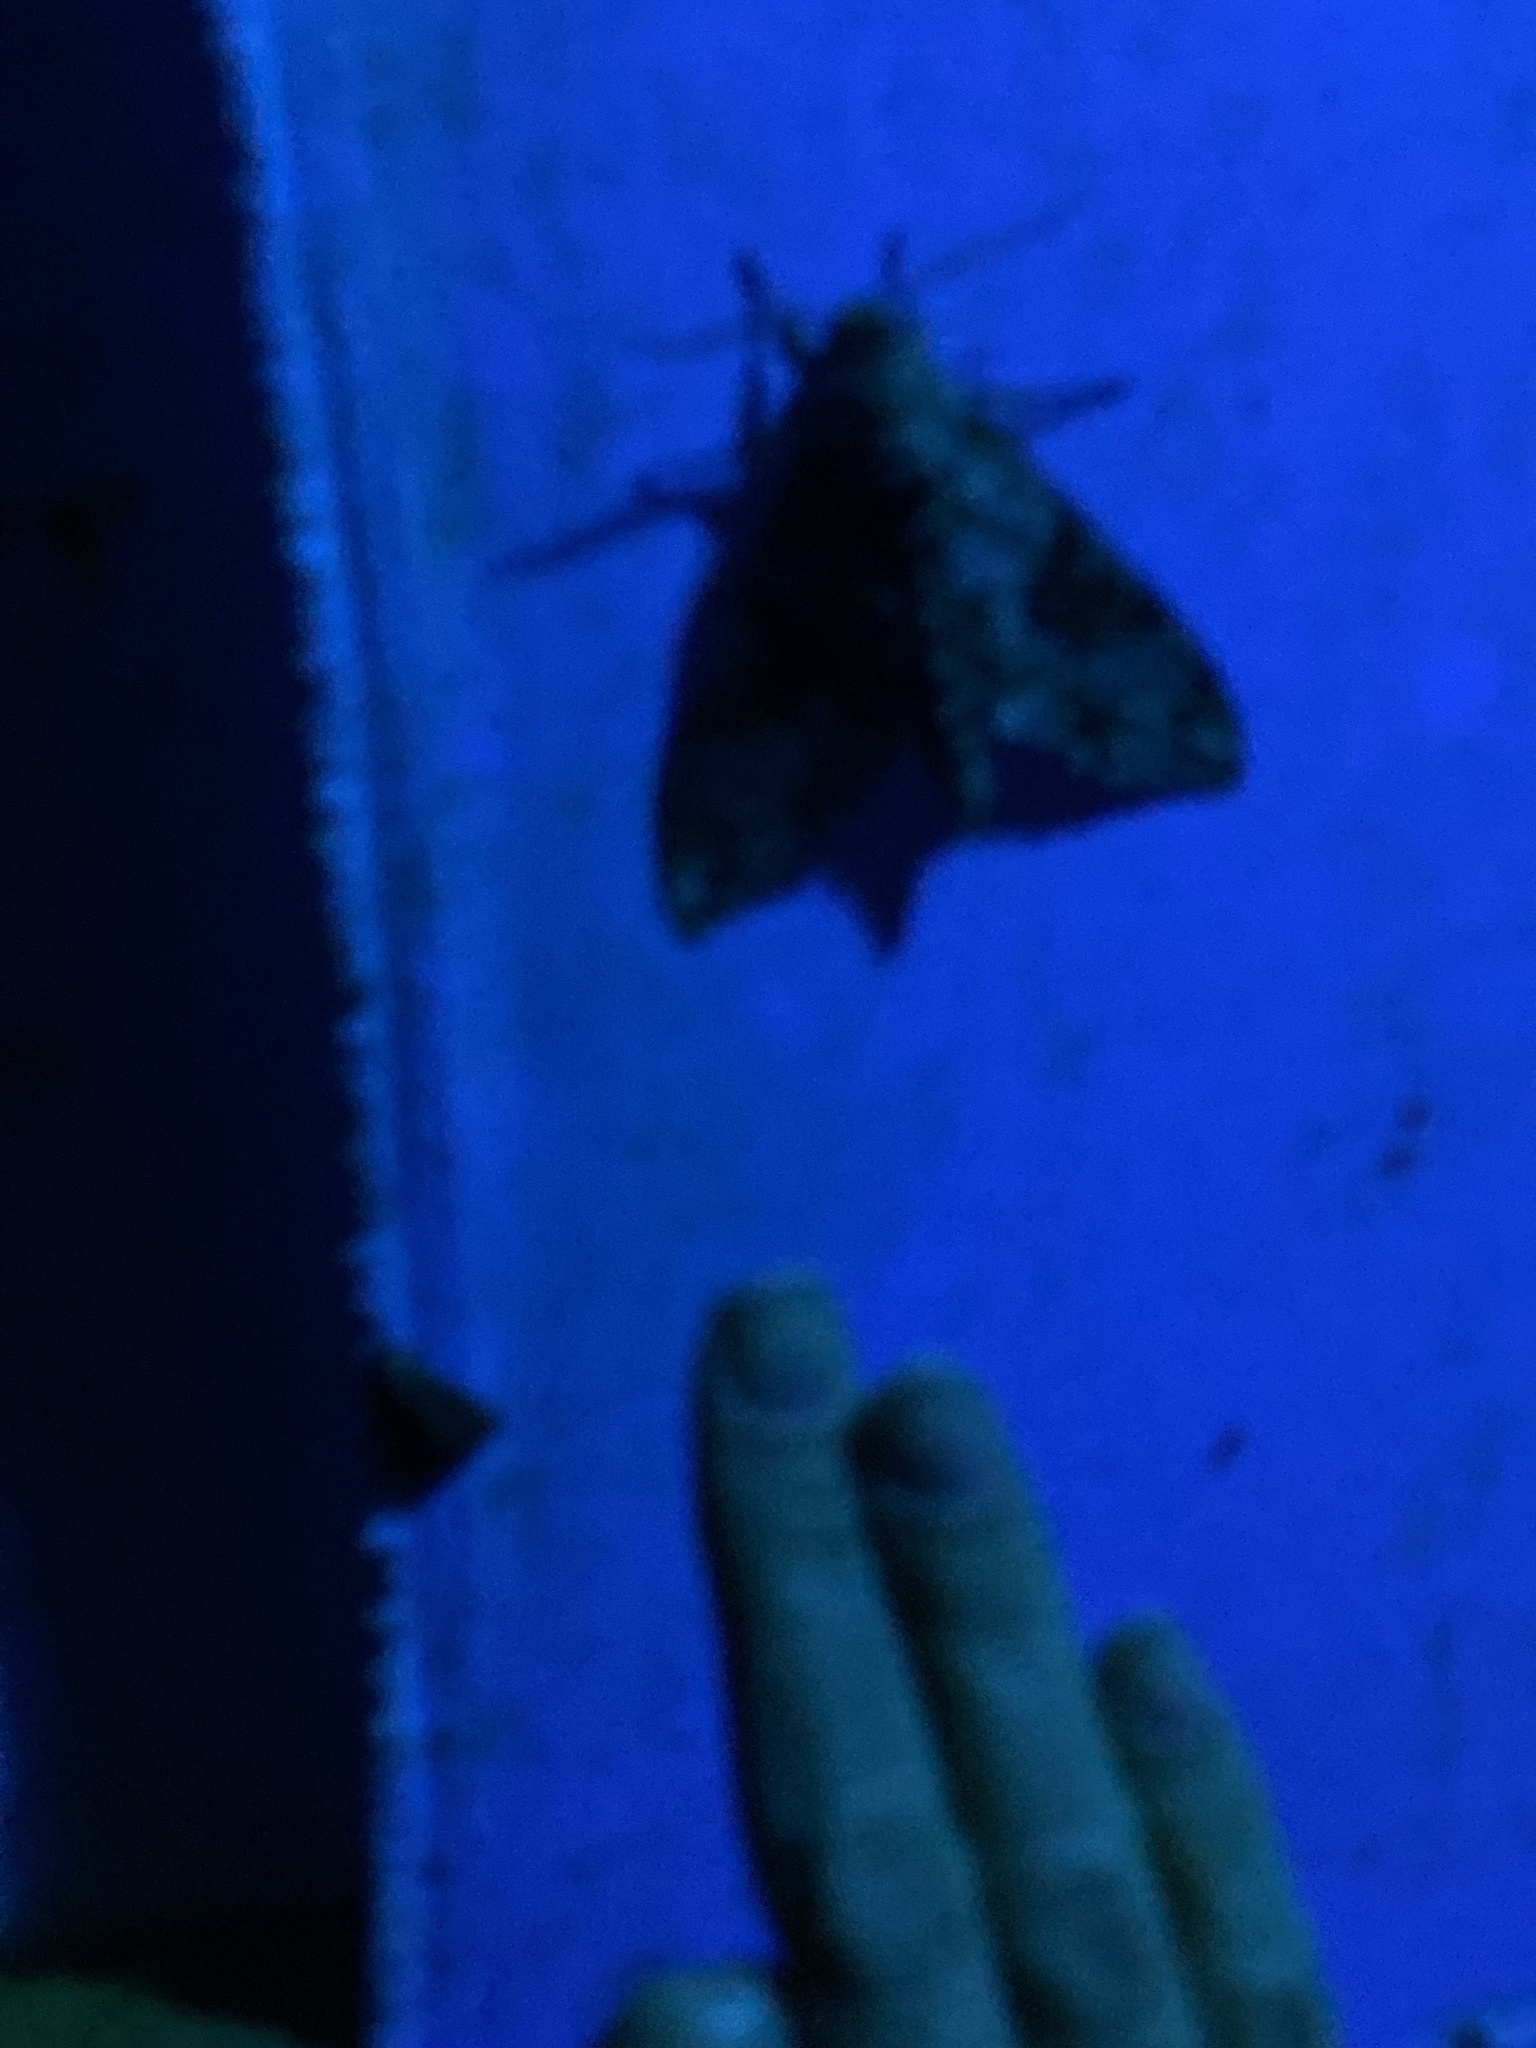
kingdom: Animalia
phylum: Arthropoda
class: Insecta
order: Lepidoptera
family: Sphingidae
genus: Manduca
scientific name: Manduca florestan
